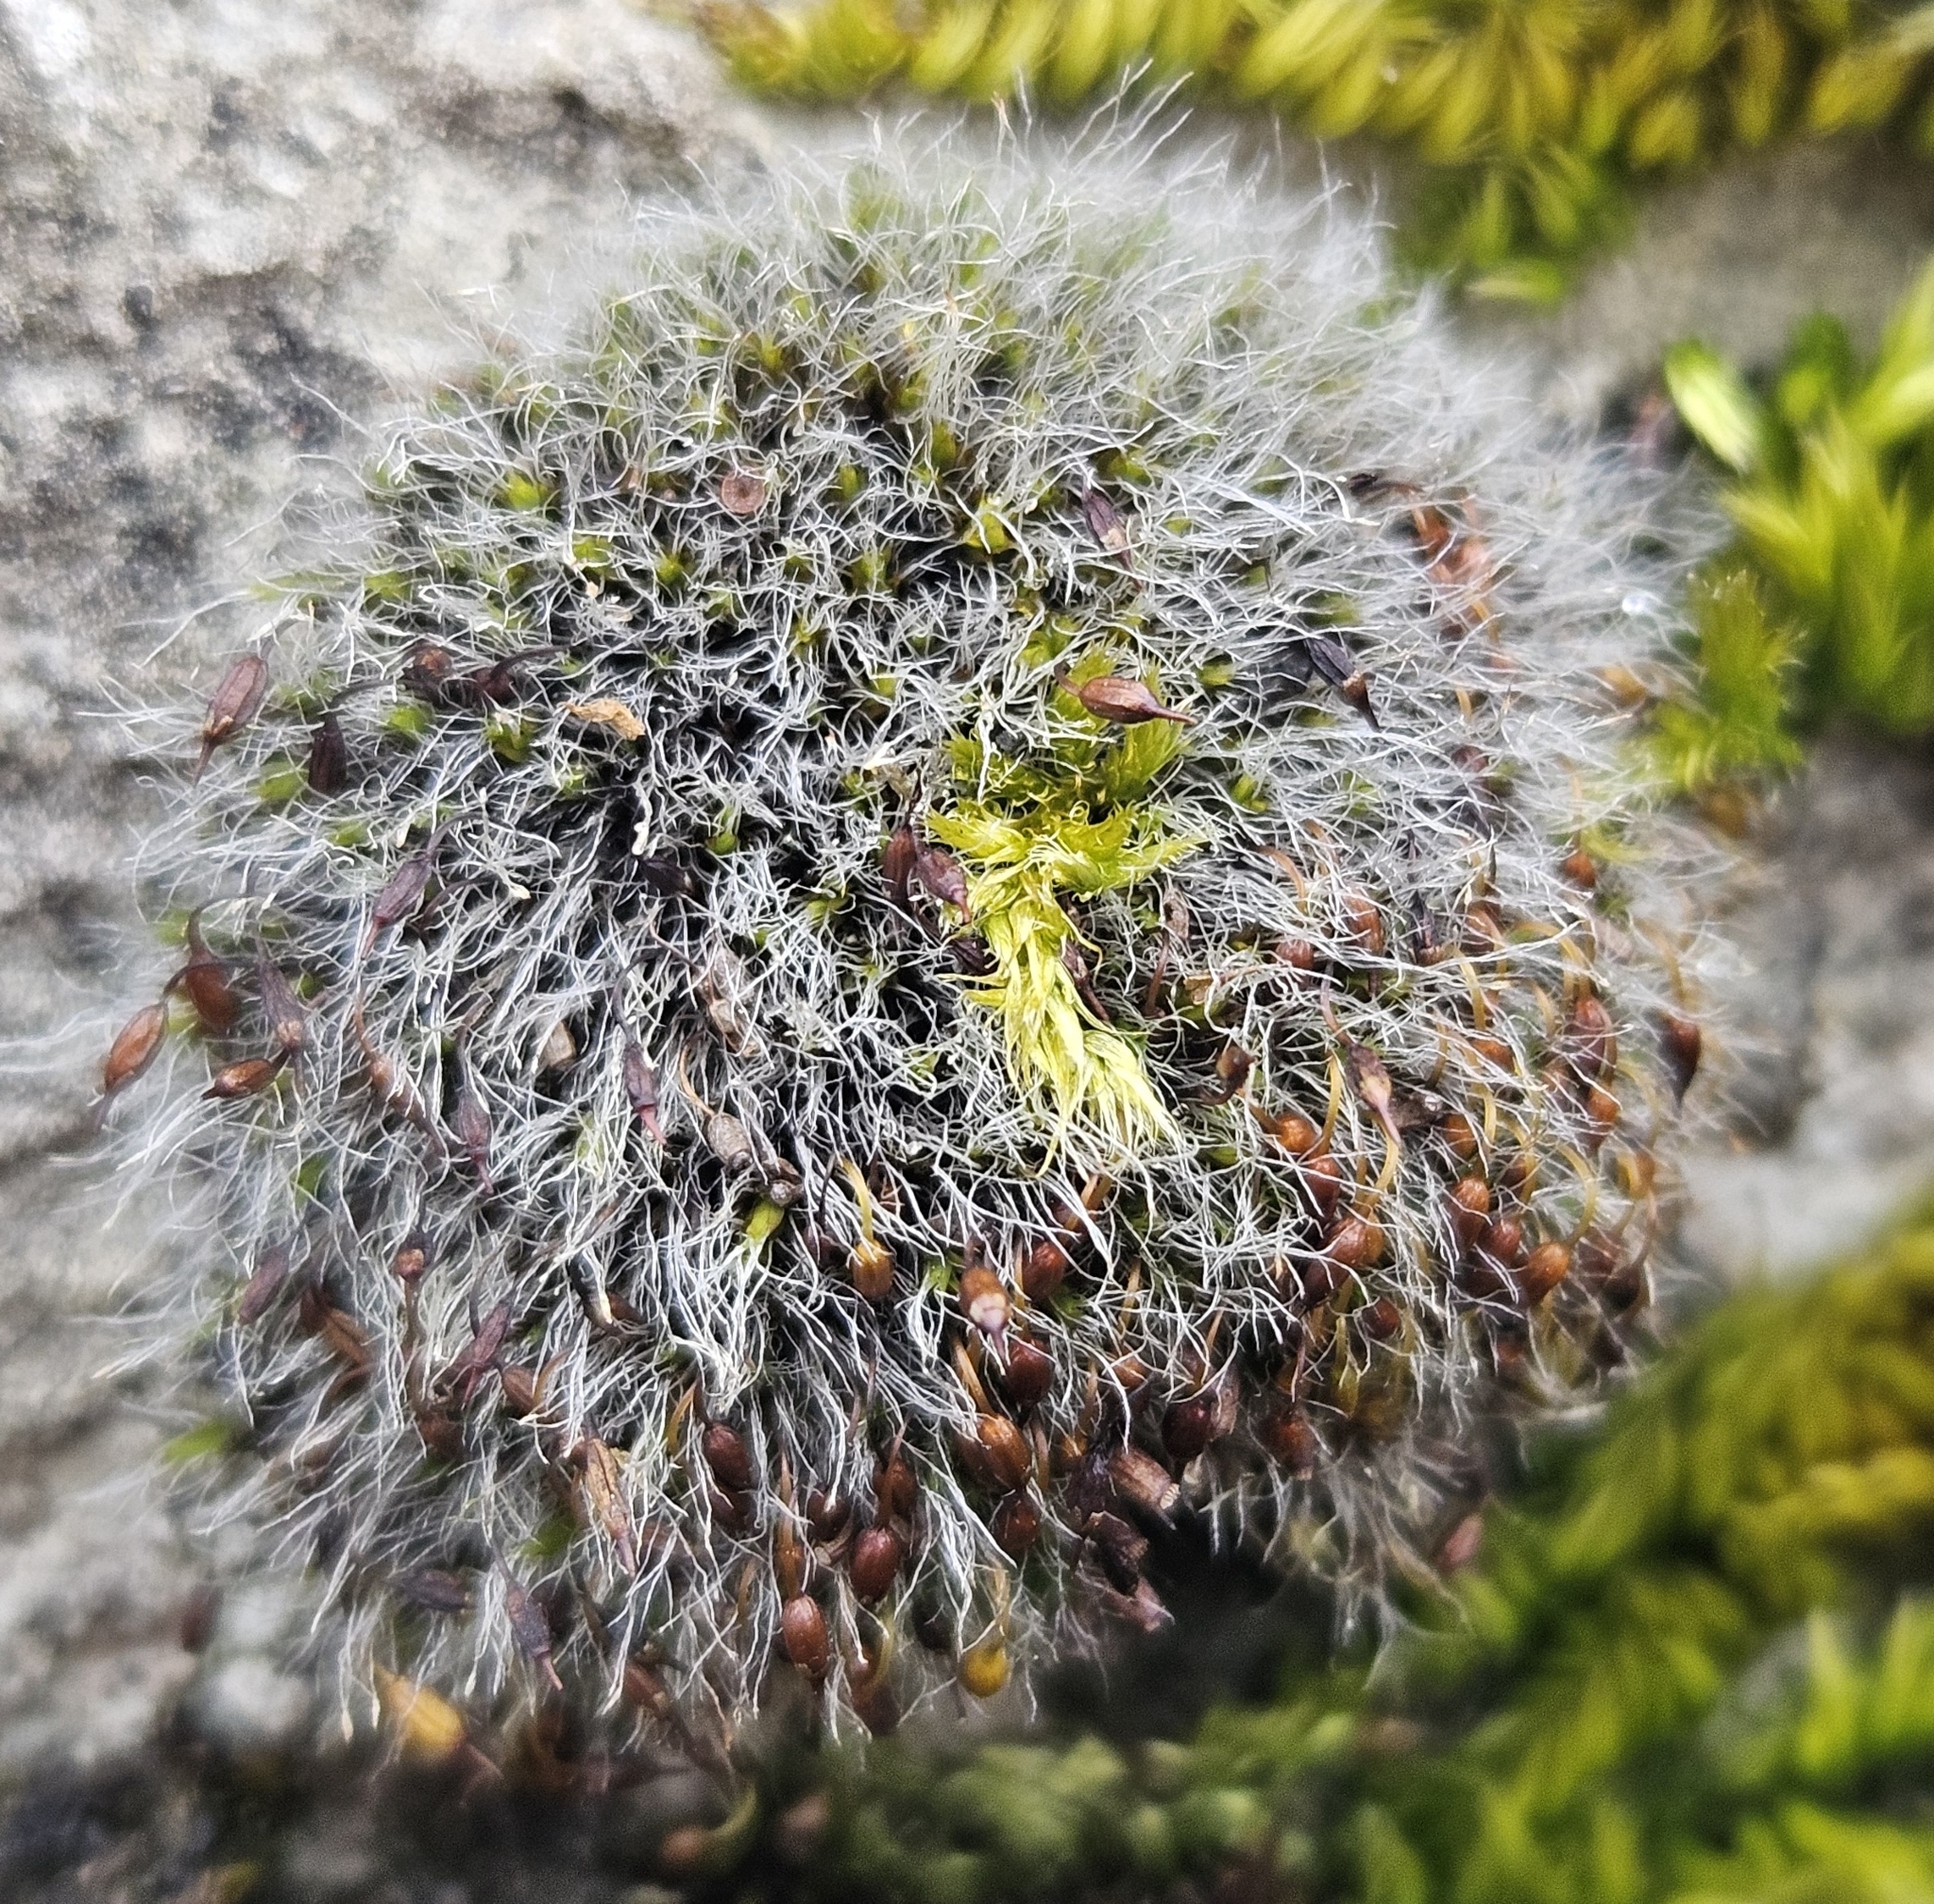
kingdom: Plantae
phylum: Bryophyta
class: Bryopsida
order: Grimmiales
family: Grimmiaceae
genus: Grimmia
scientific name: Grimmia pulvinata
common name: Grey-cushioned grimmia
